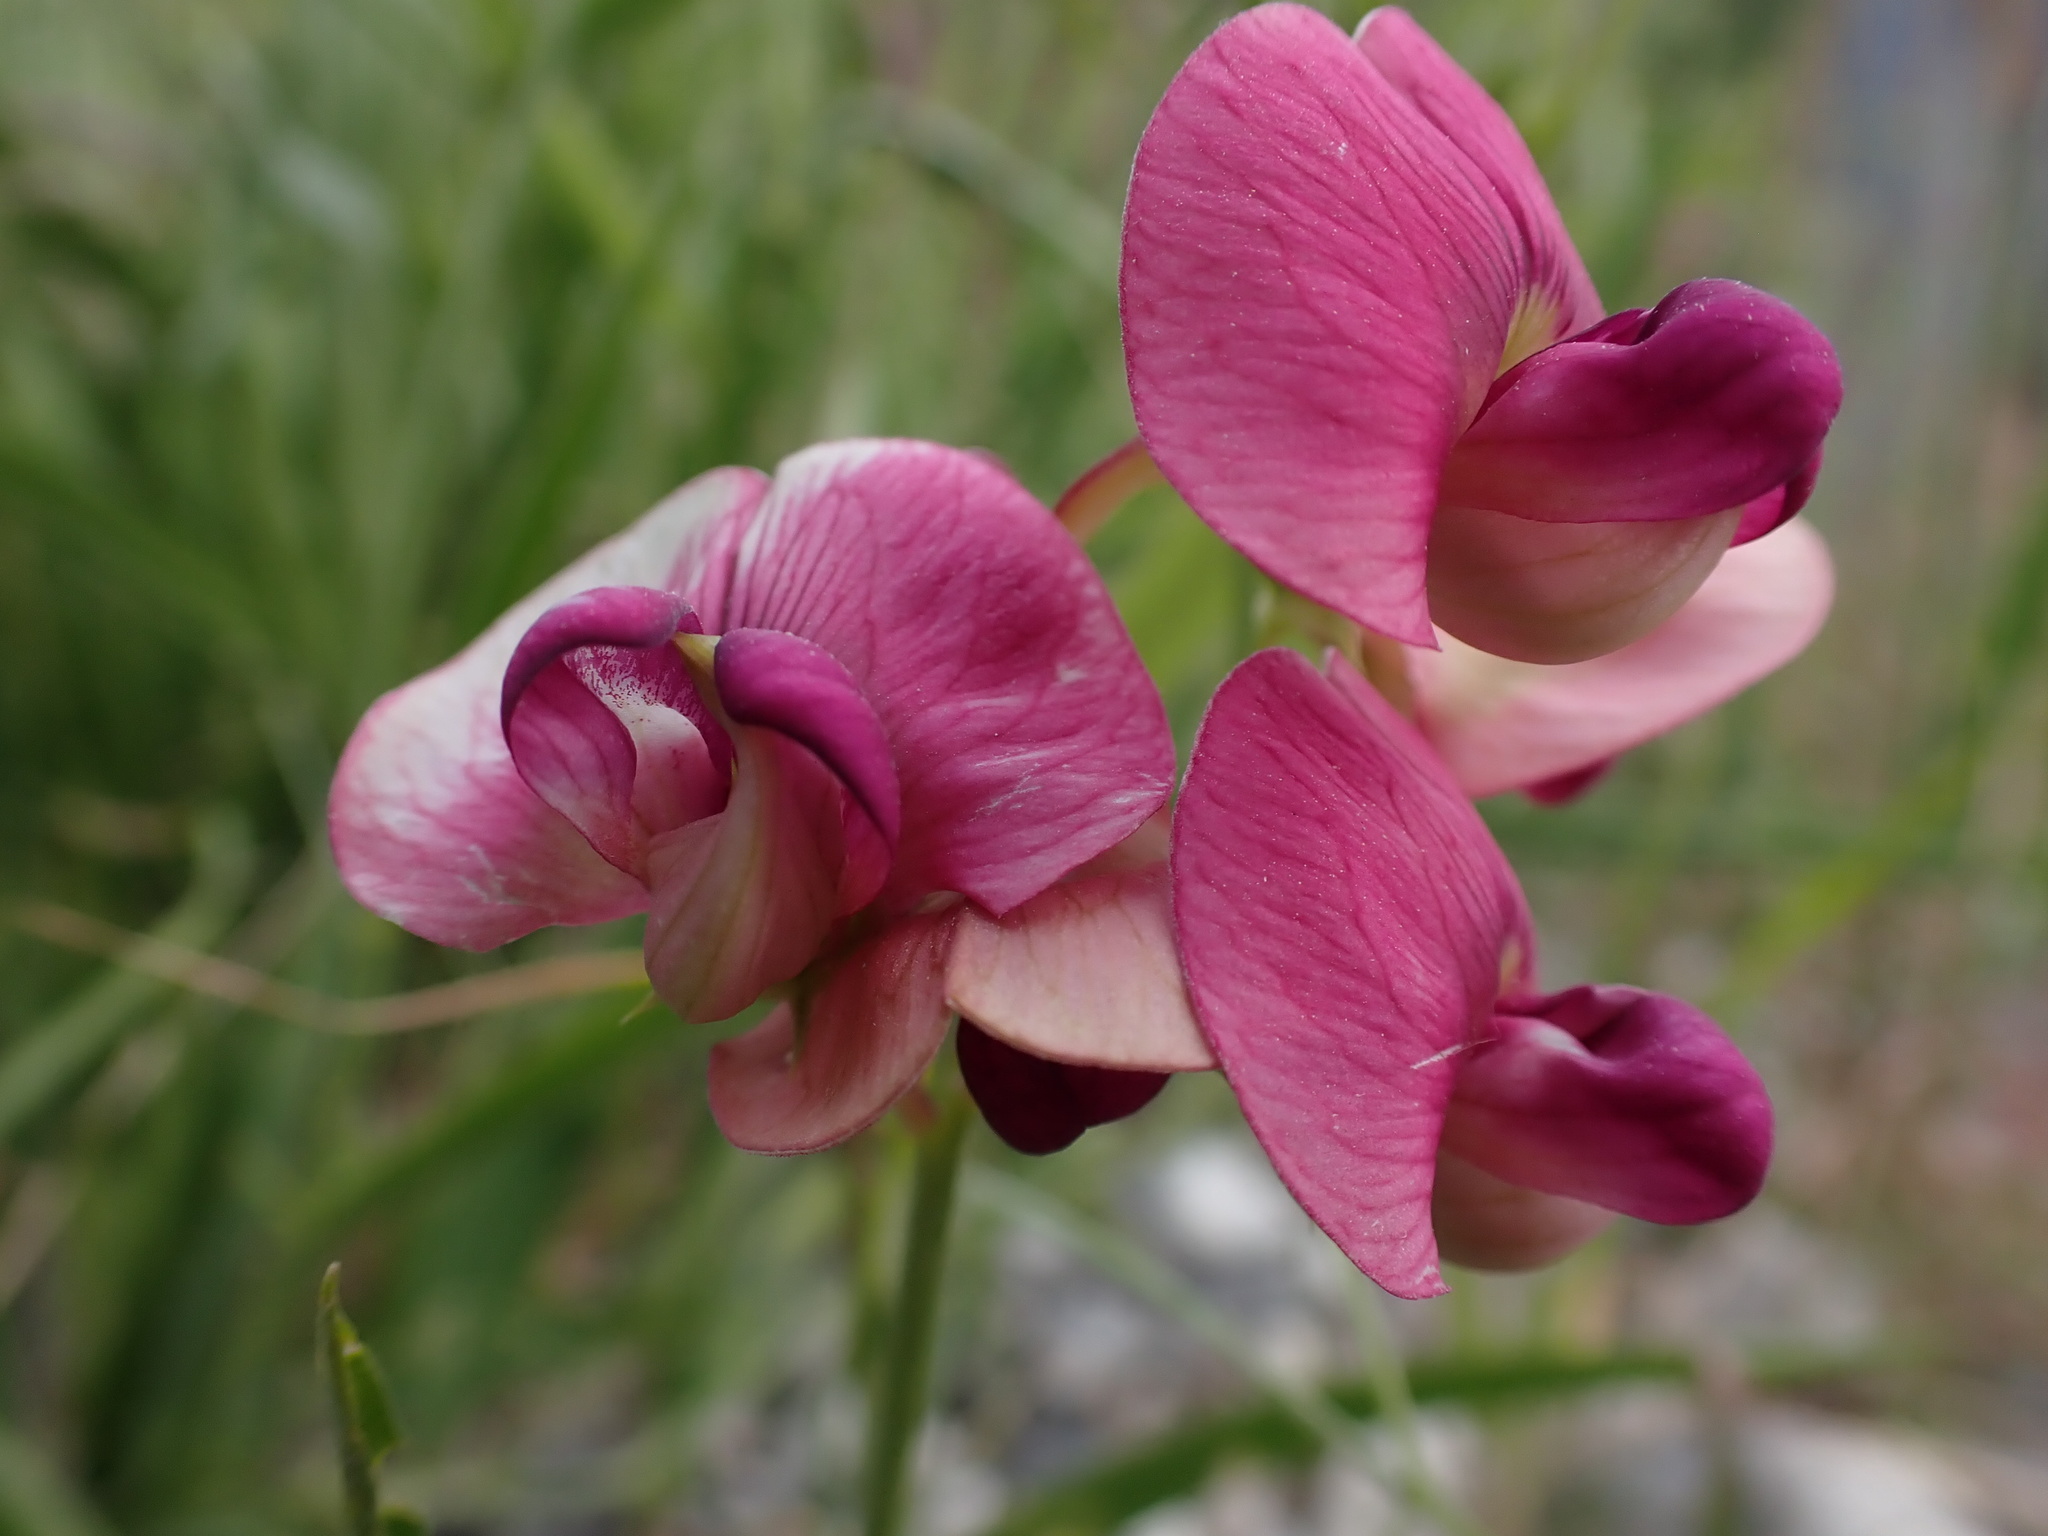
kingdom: Plantae
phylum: Tracheophyta
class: Magnoliopsida
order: Fabales
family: Fabaceae
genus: Lathyrus
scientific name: Lathyrus sylvestris
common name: Flat pea
